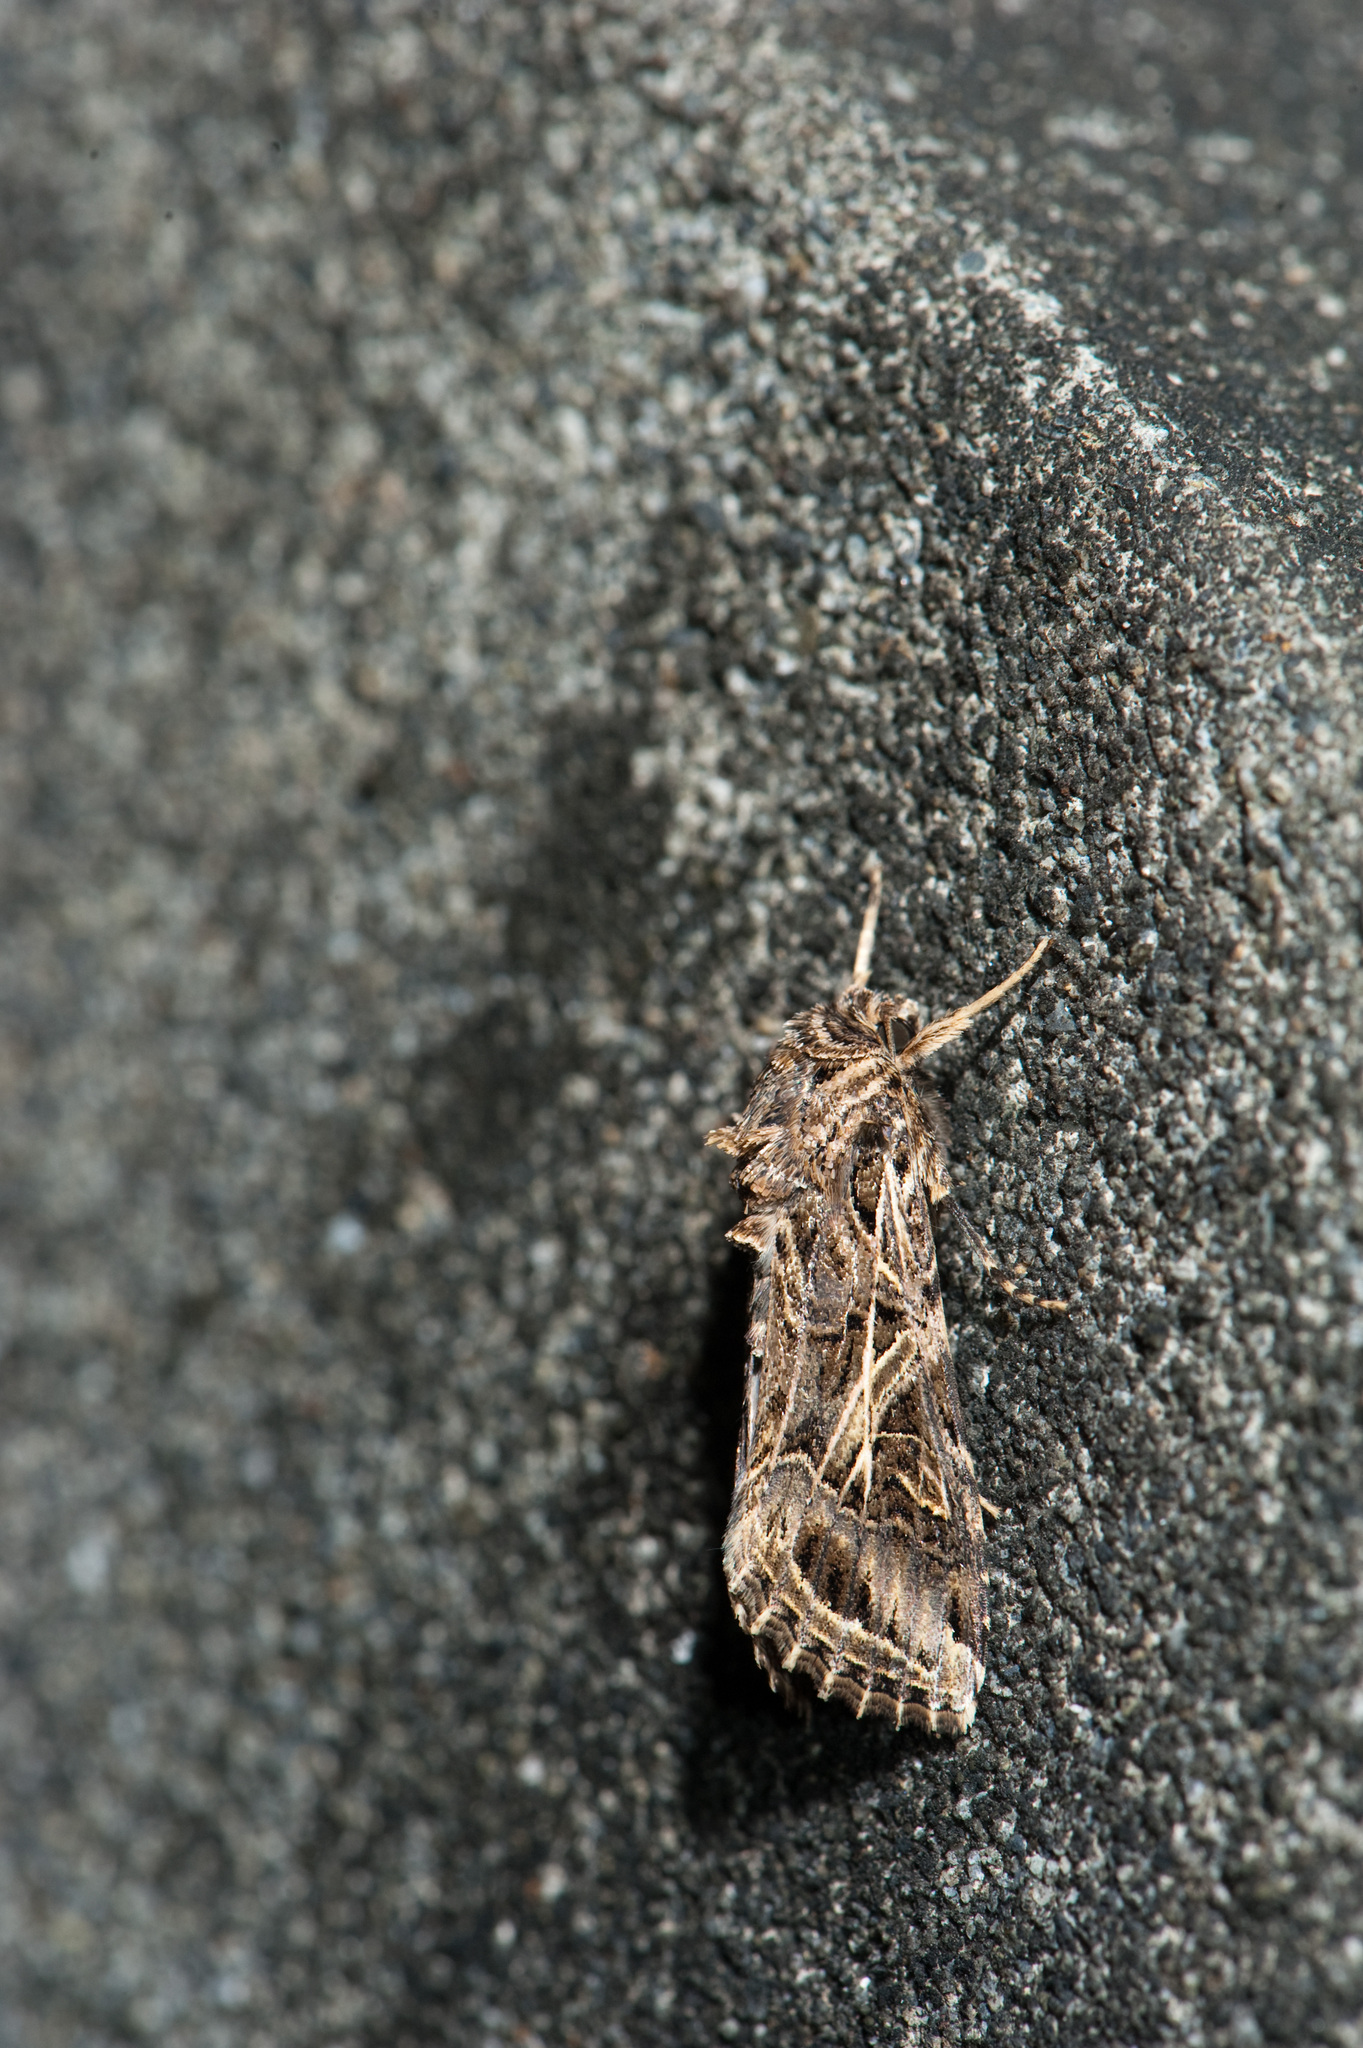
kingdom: Animalia
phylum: Arthropoda
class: Insecta
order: Lepidoptera
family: Noctuidae
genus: Spodoptera
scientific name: Spodoptera litura
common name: Asian cotton leafworm
